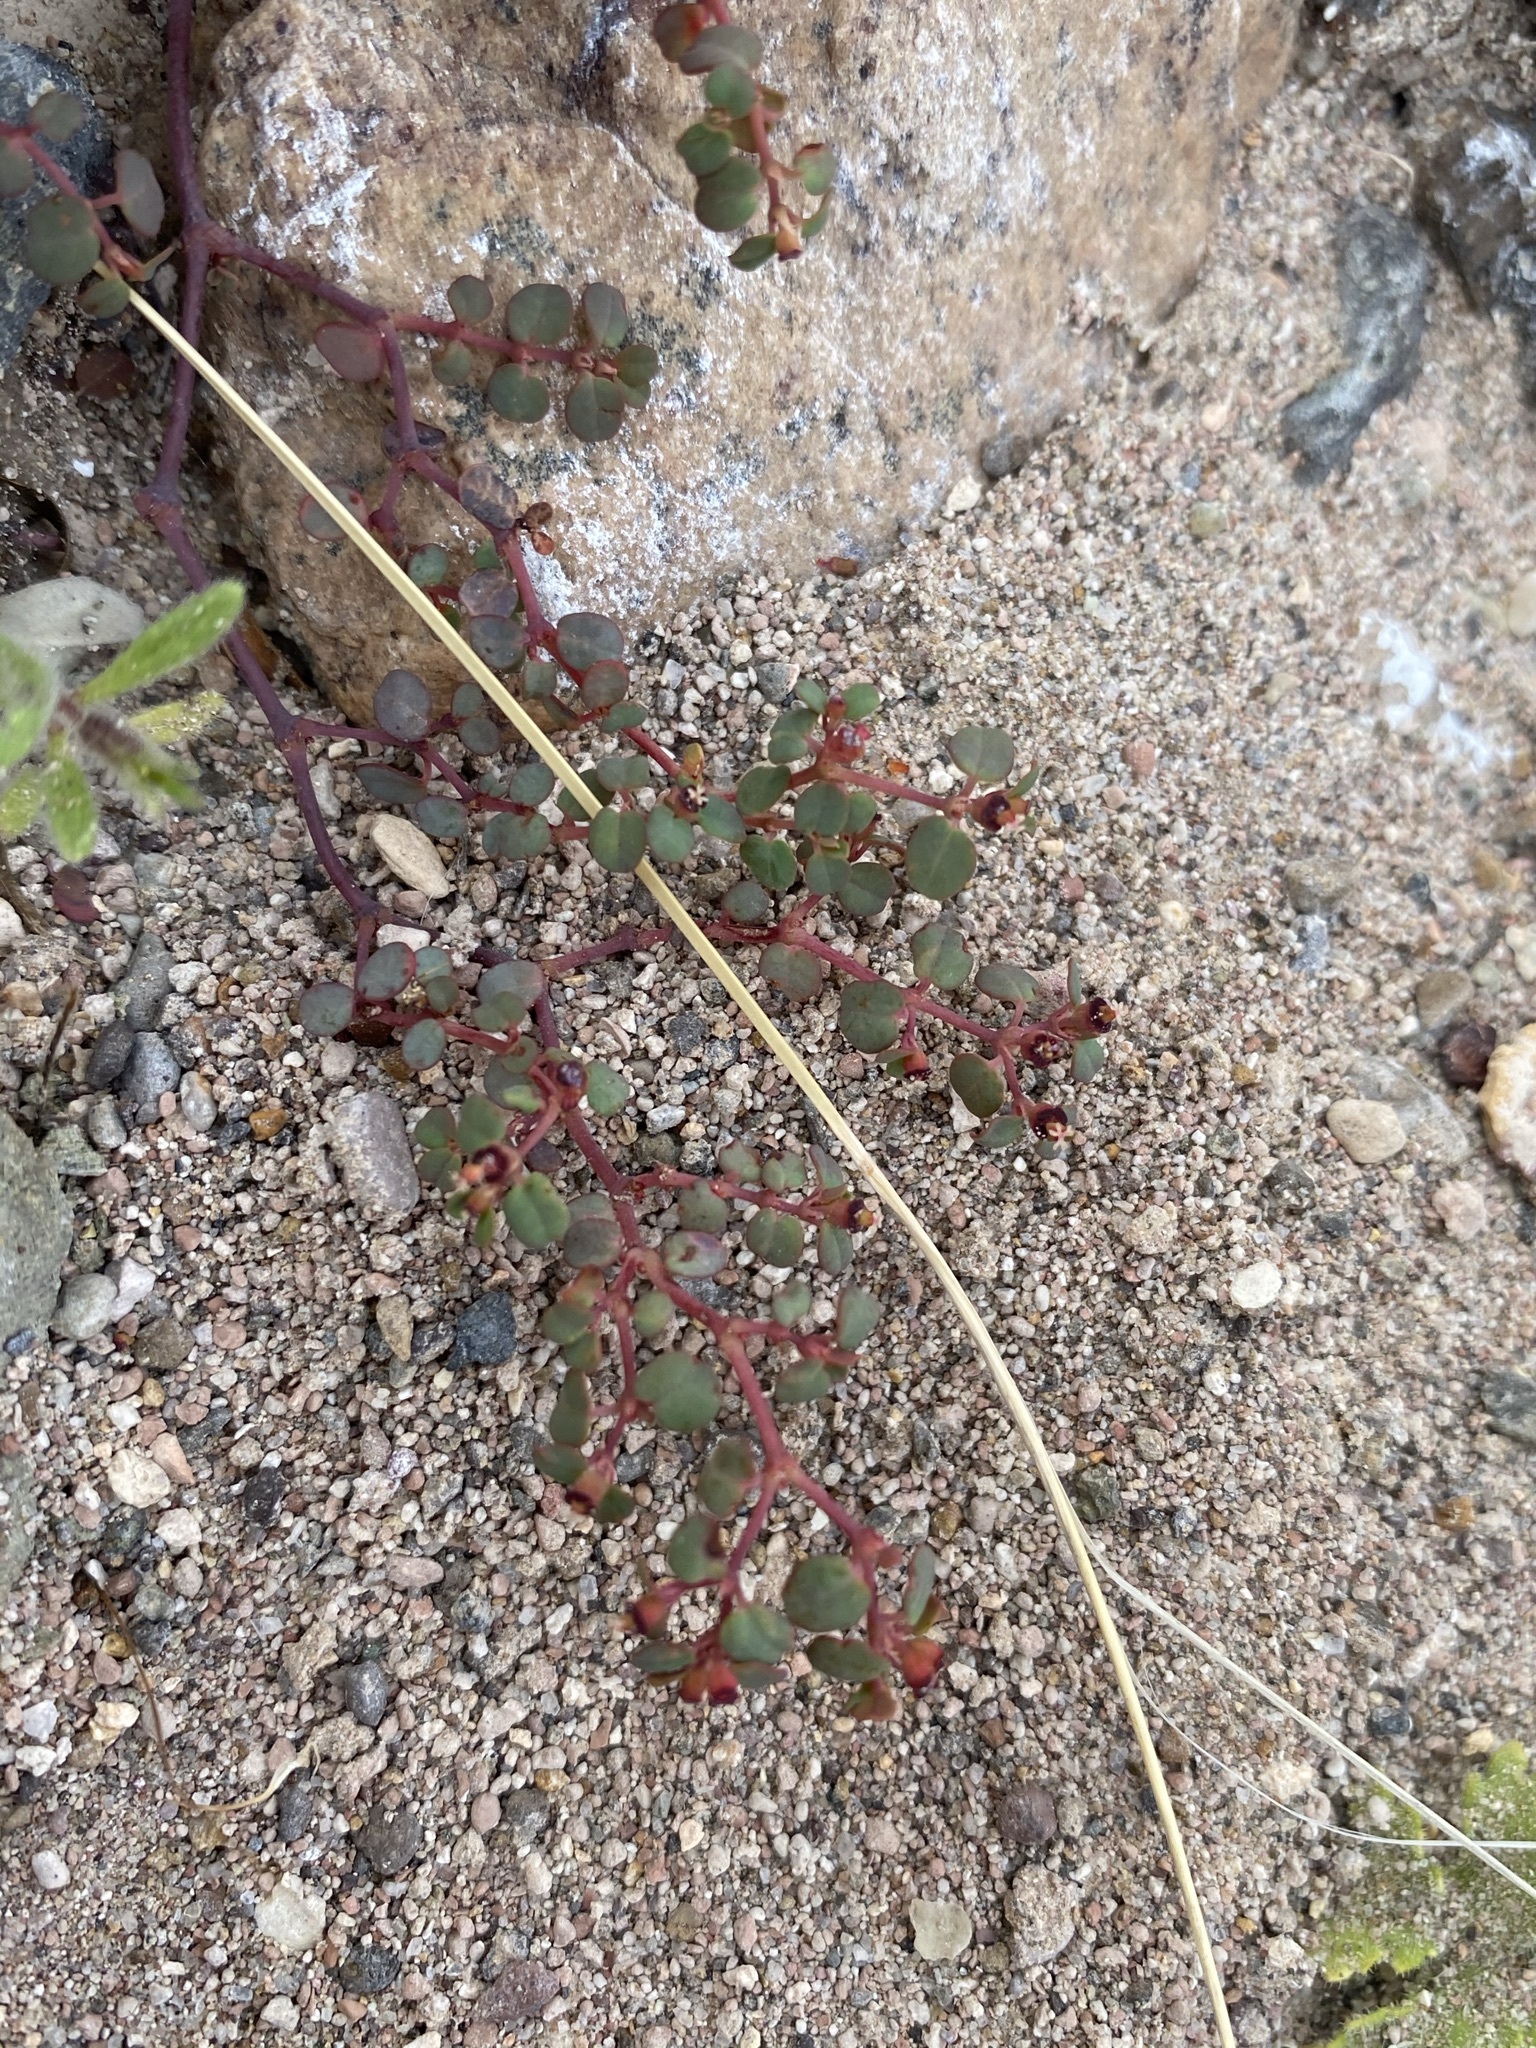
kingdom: Plantae
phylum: Tracheophyta
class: Magnoliopsida
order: Malpighiales
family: Euphorbiaceae
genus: Euphorbia
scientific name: Euphorbia simulans
